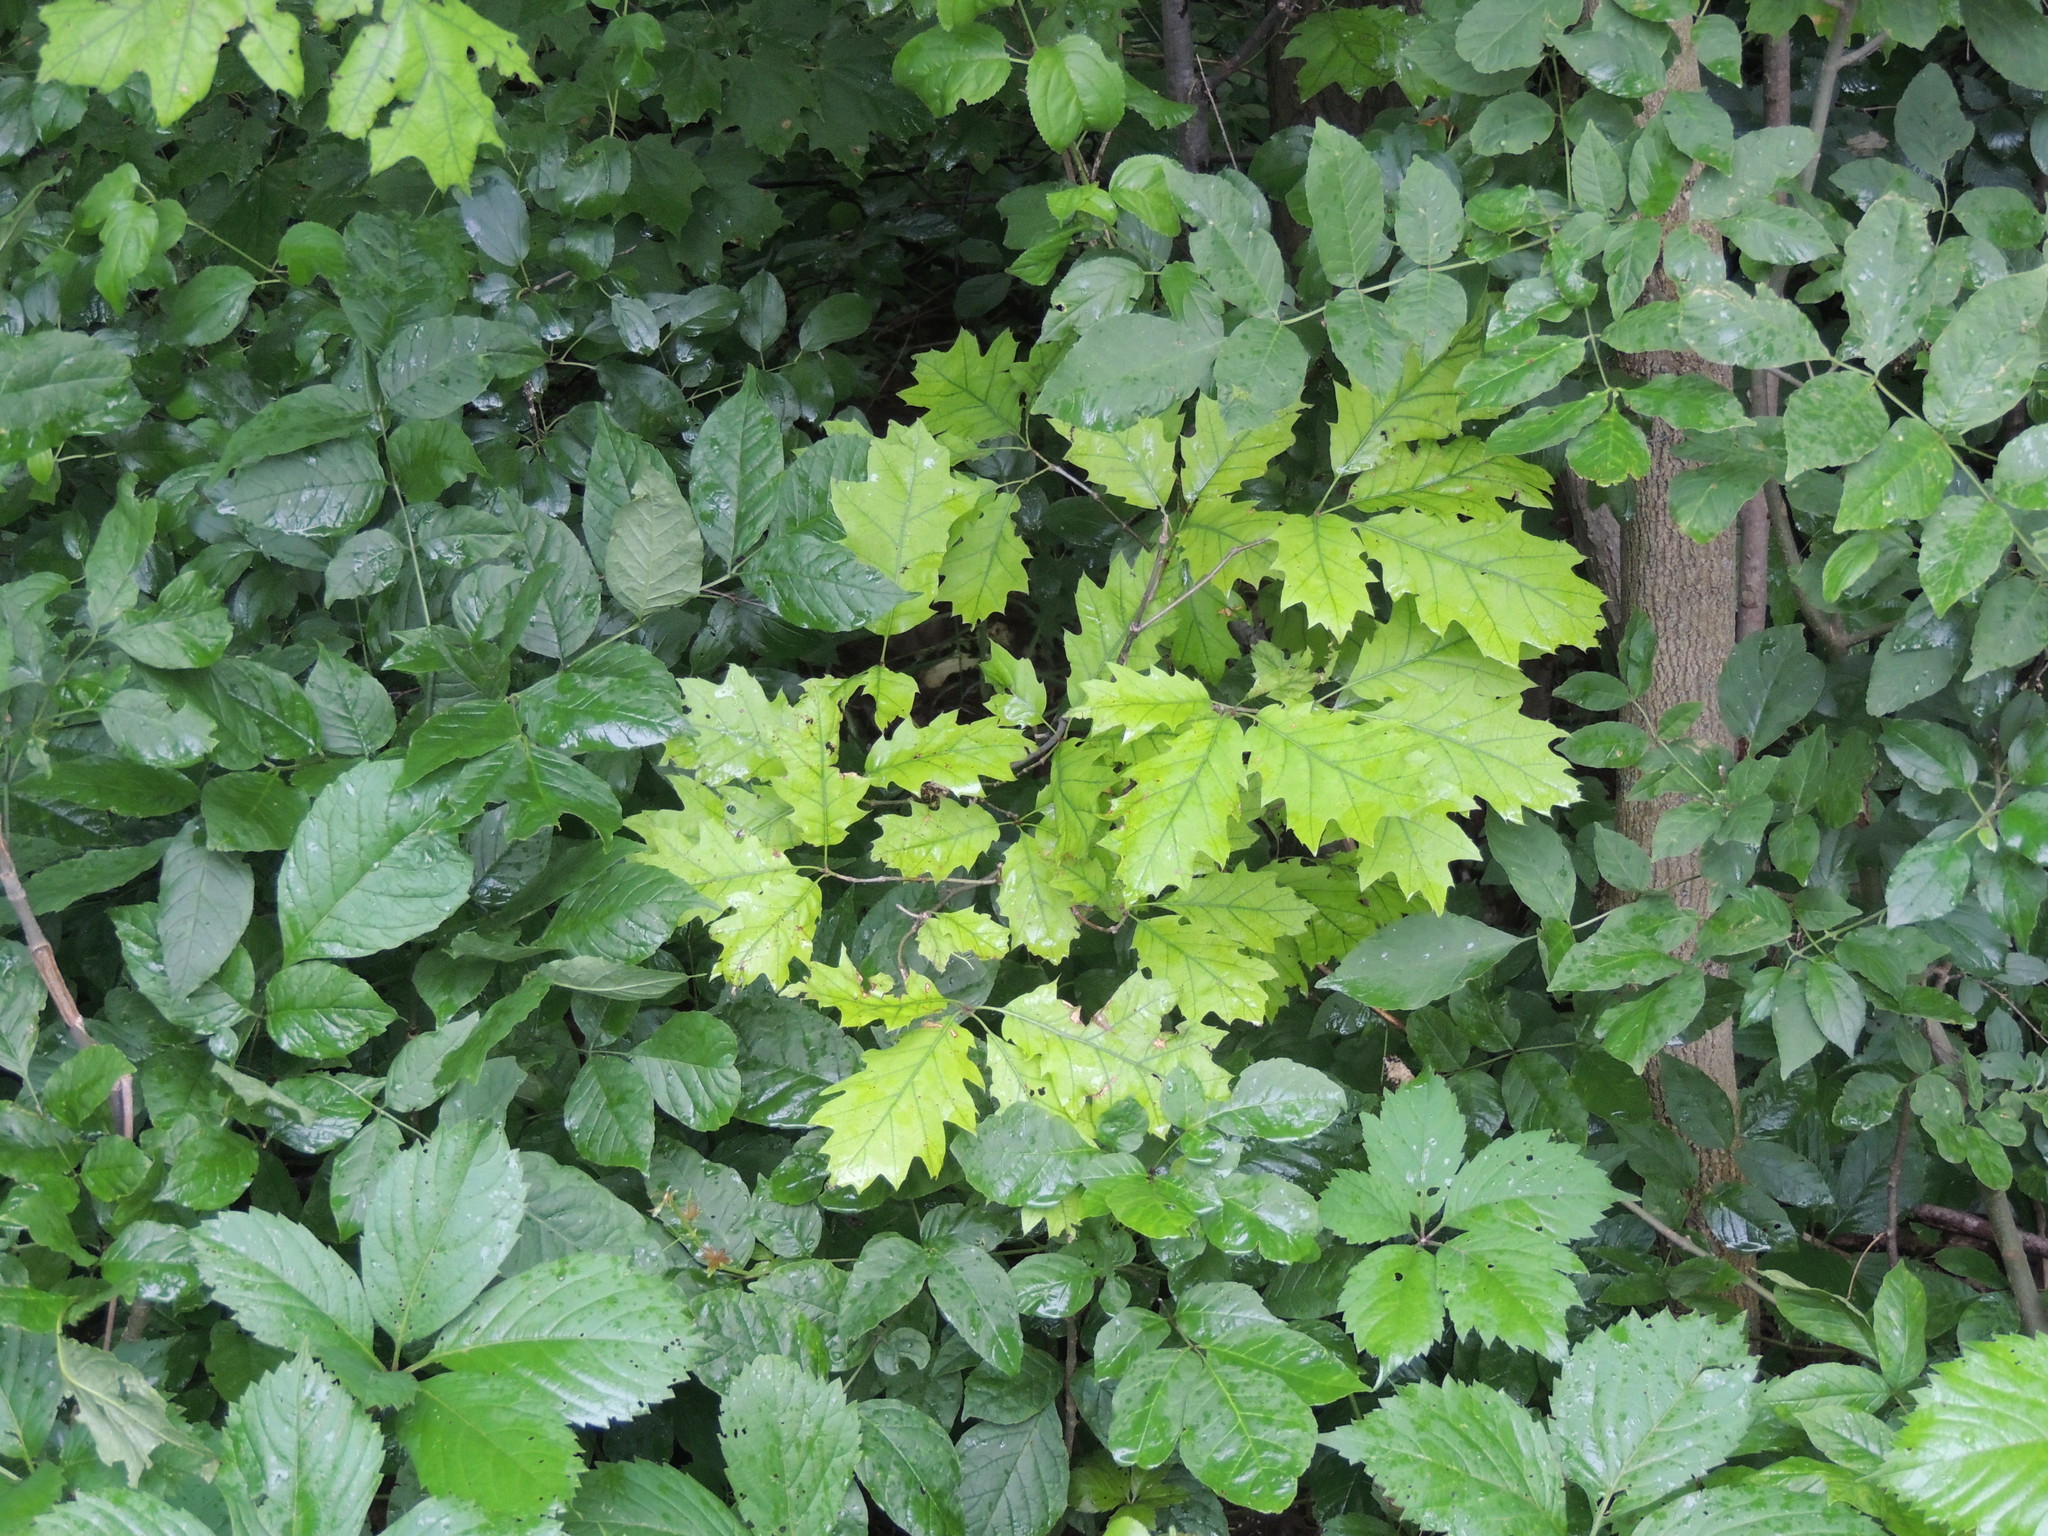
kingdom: Plantae
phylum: Tracheophyta
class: Magnoliopsida
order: Fagales
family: Fagaceae
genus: Quercus
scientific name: Quercus rubra
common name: Red oak
